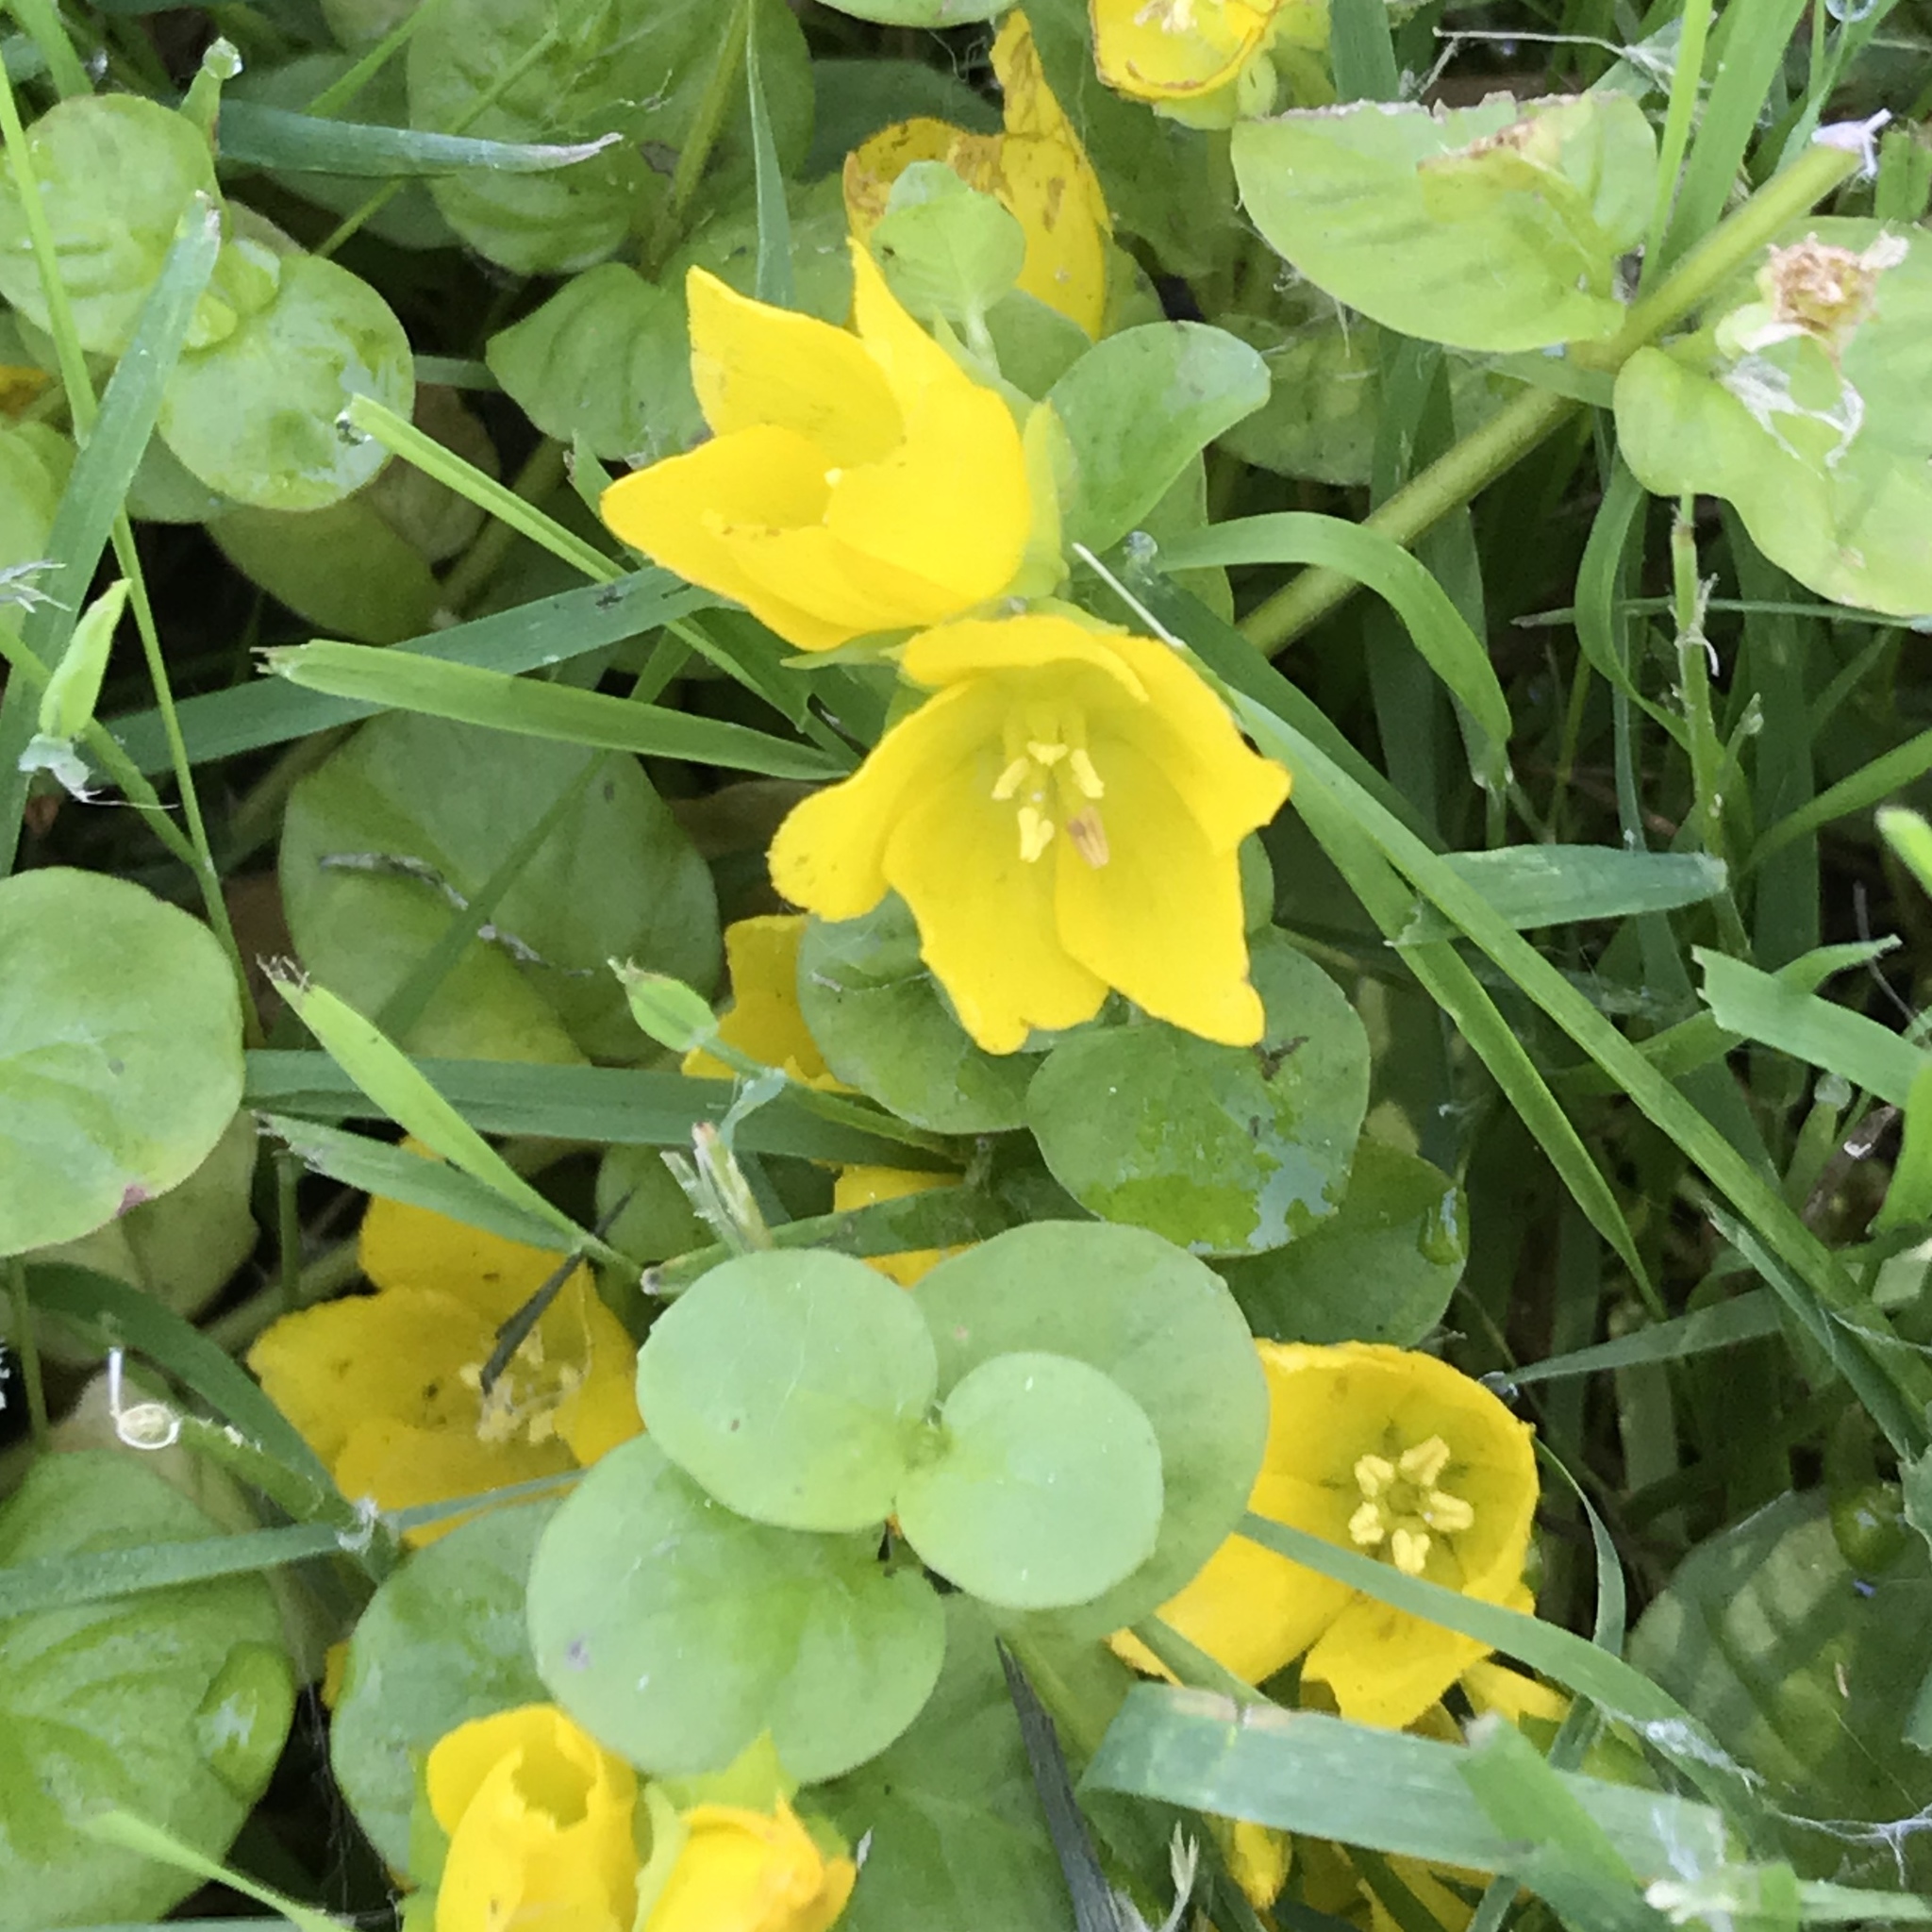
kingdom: Plantae
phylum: Tracheophyta
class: Magnoliopsida
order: Ericales
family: Primulaceae
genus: Lysimachia
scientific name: Lysimachia nummularia
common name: Moneywort
